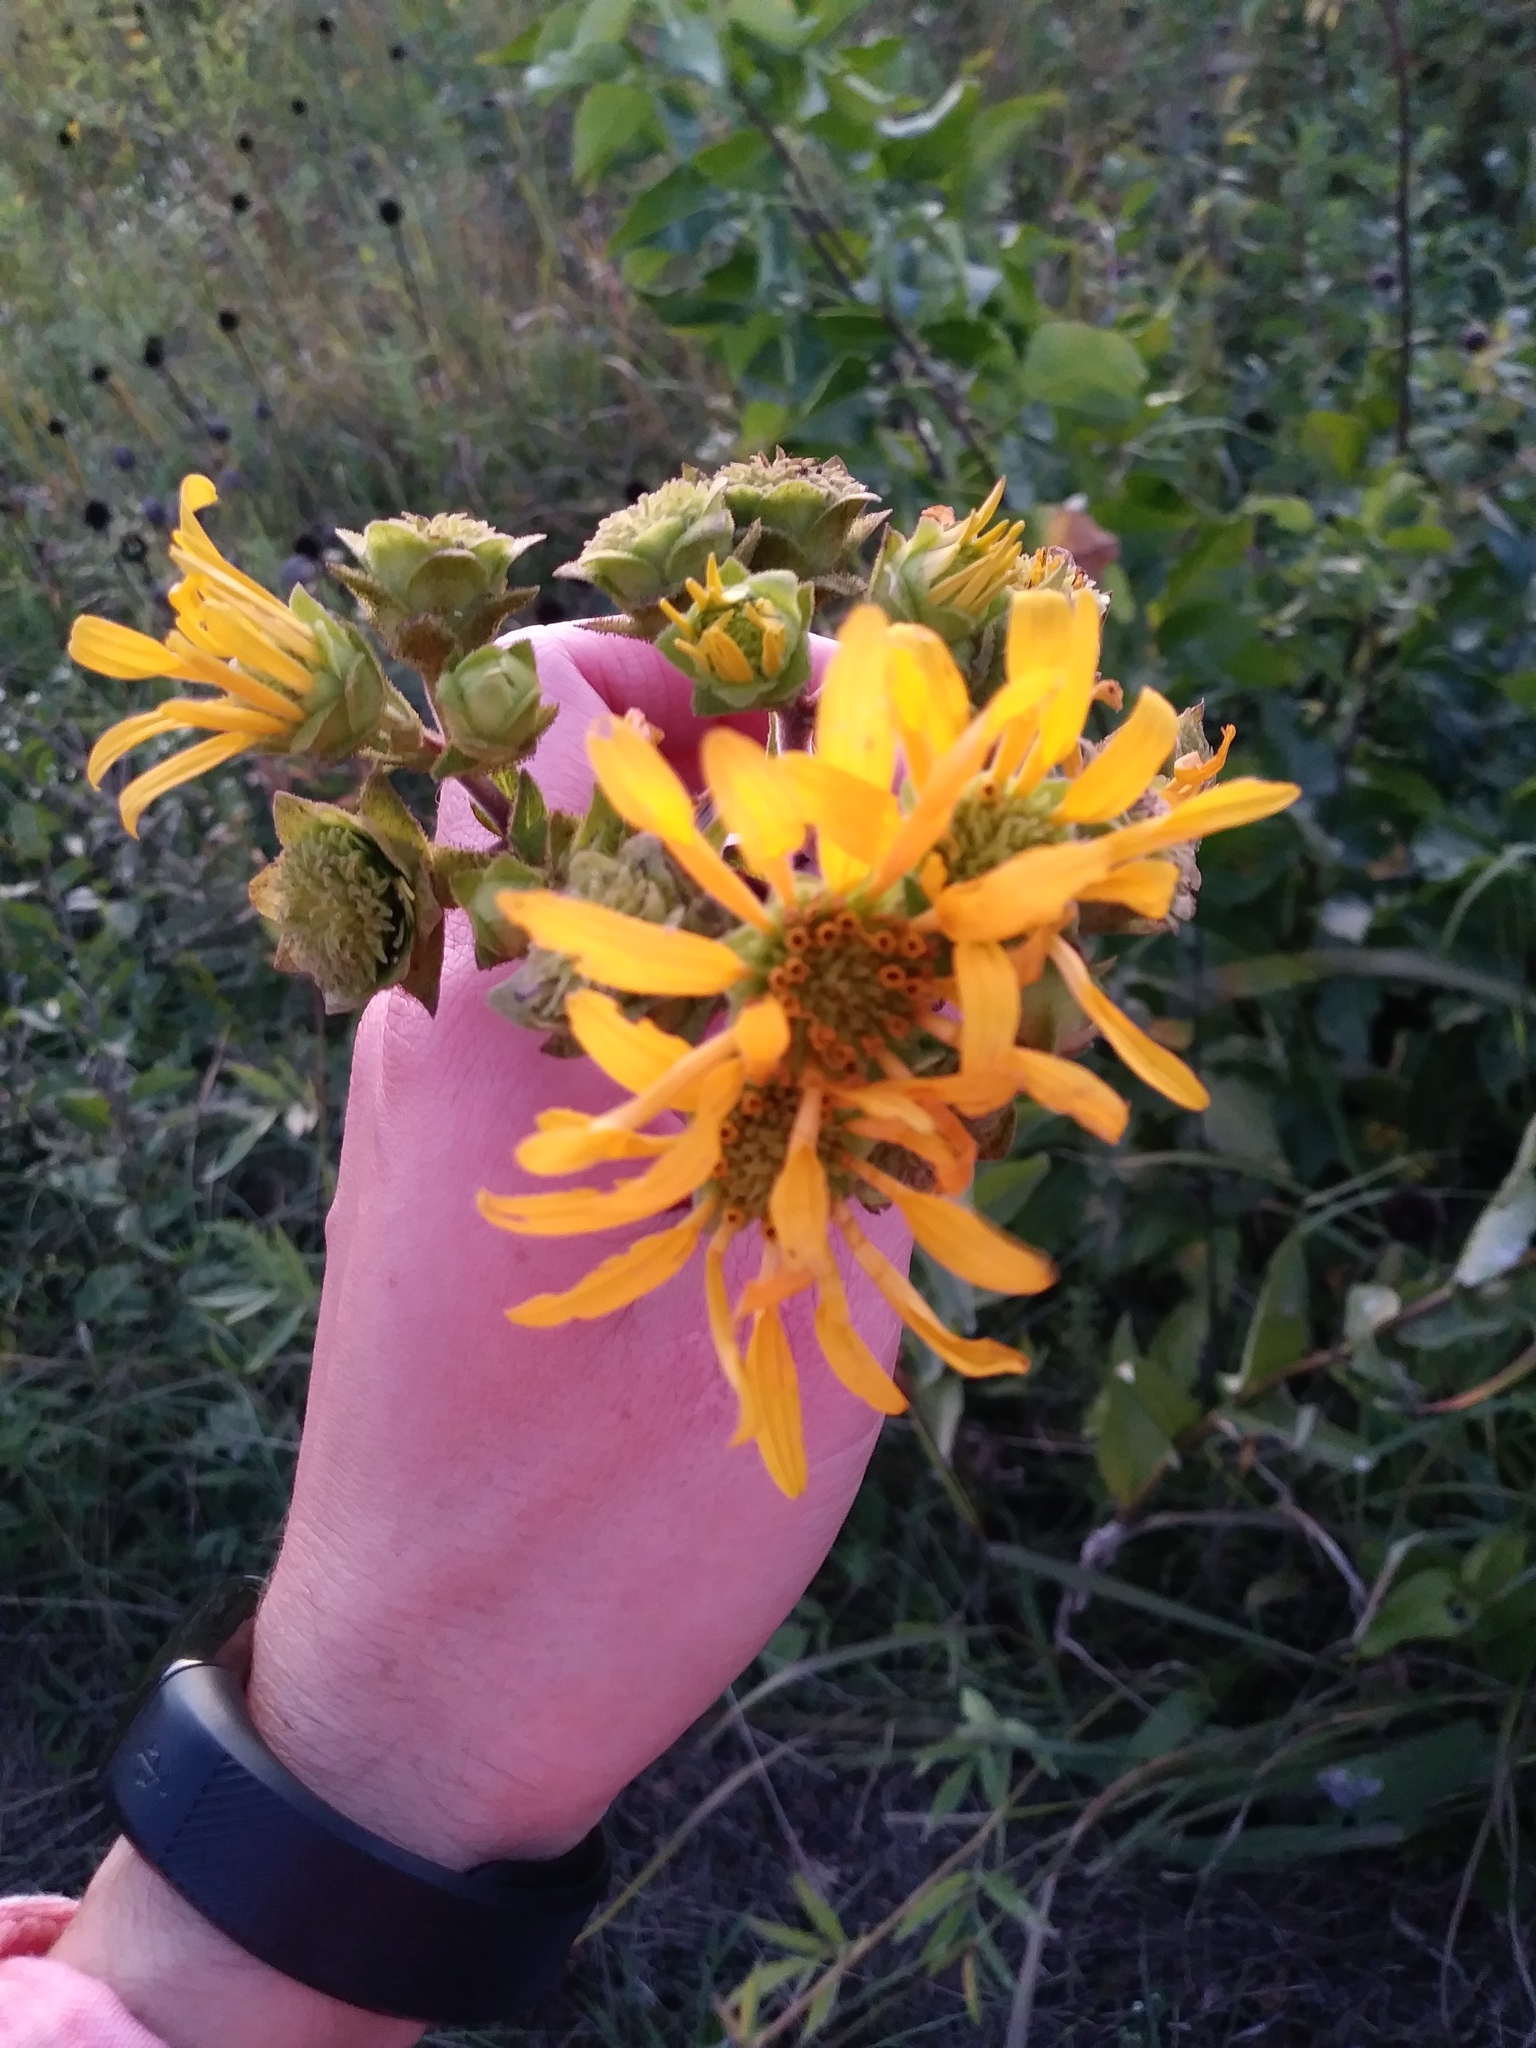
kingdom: Plantae
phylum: Tracheophyta
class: Magnoliopsida
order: Asterales
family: Asteraceae
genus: Silphium
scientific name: Silphium integrifolium
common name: Whole-leaf rosinweed
